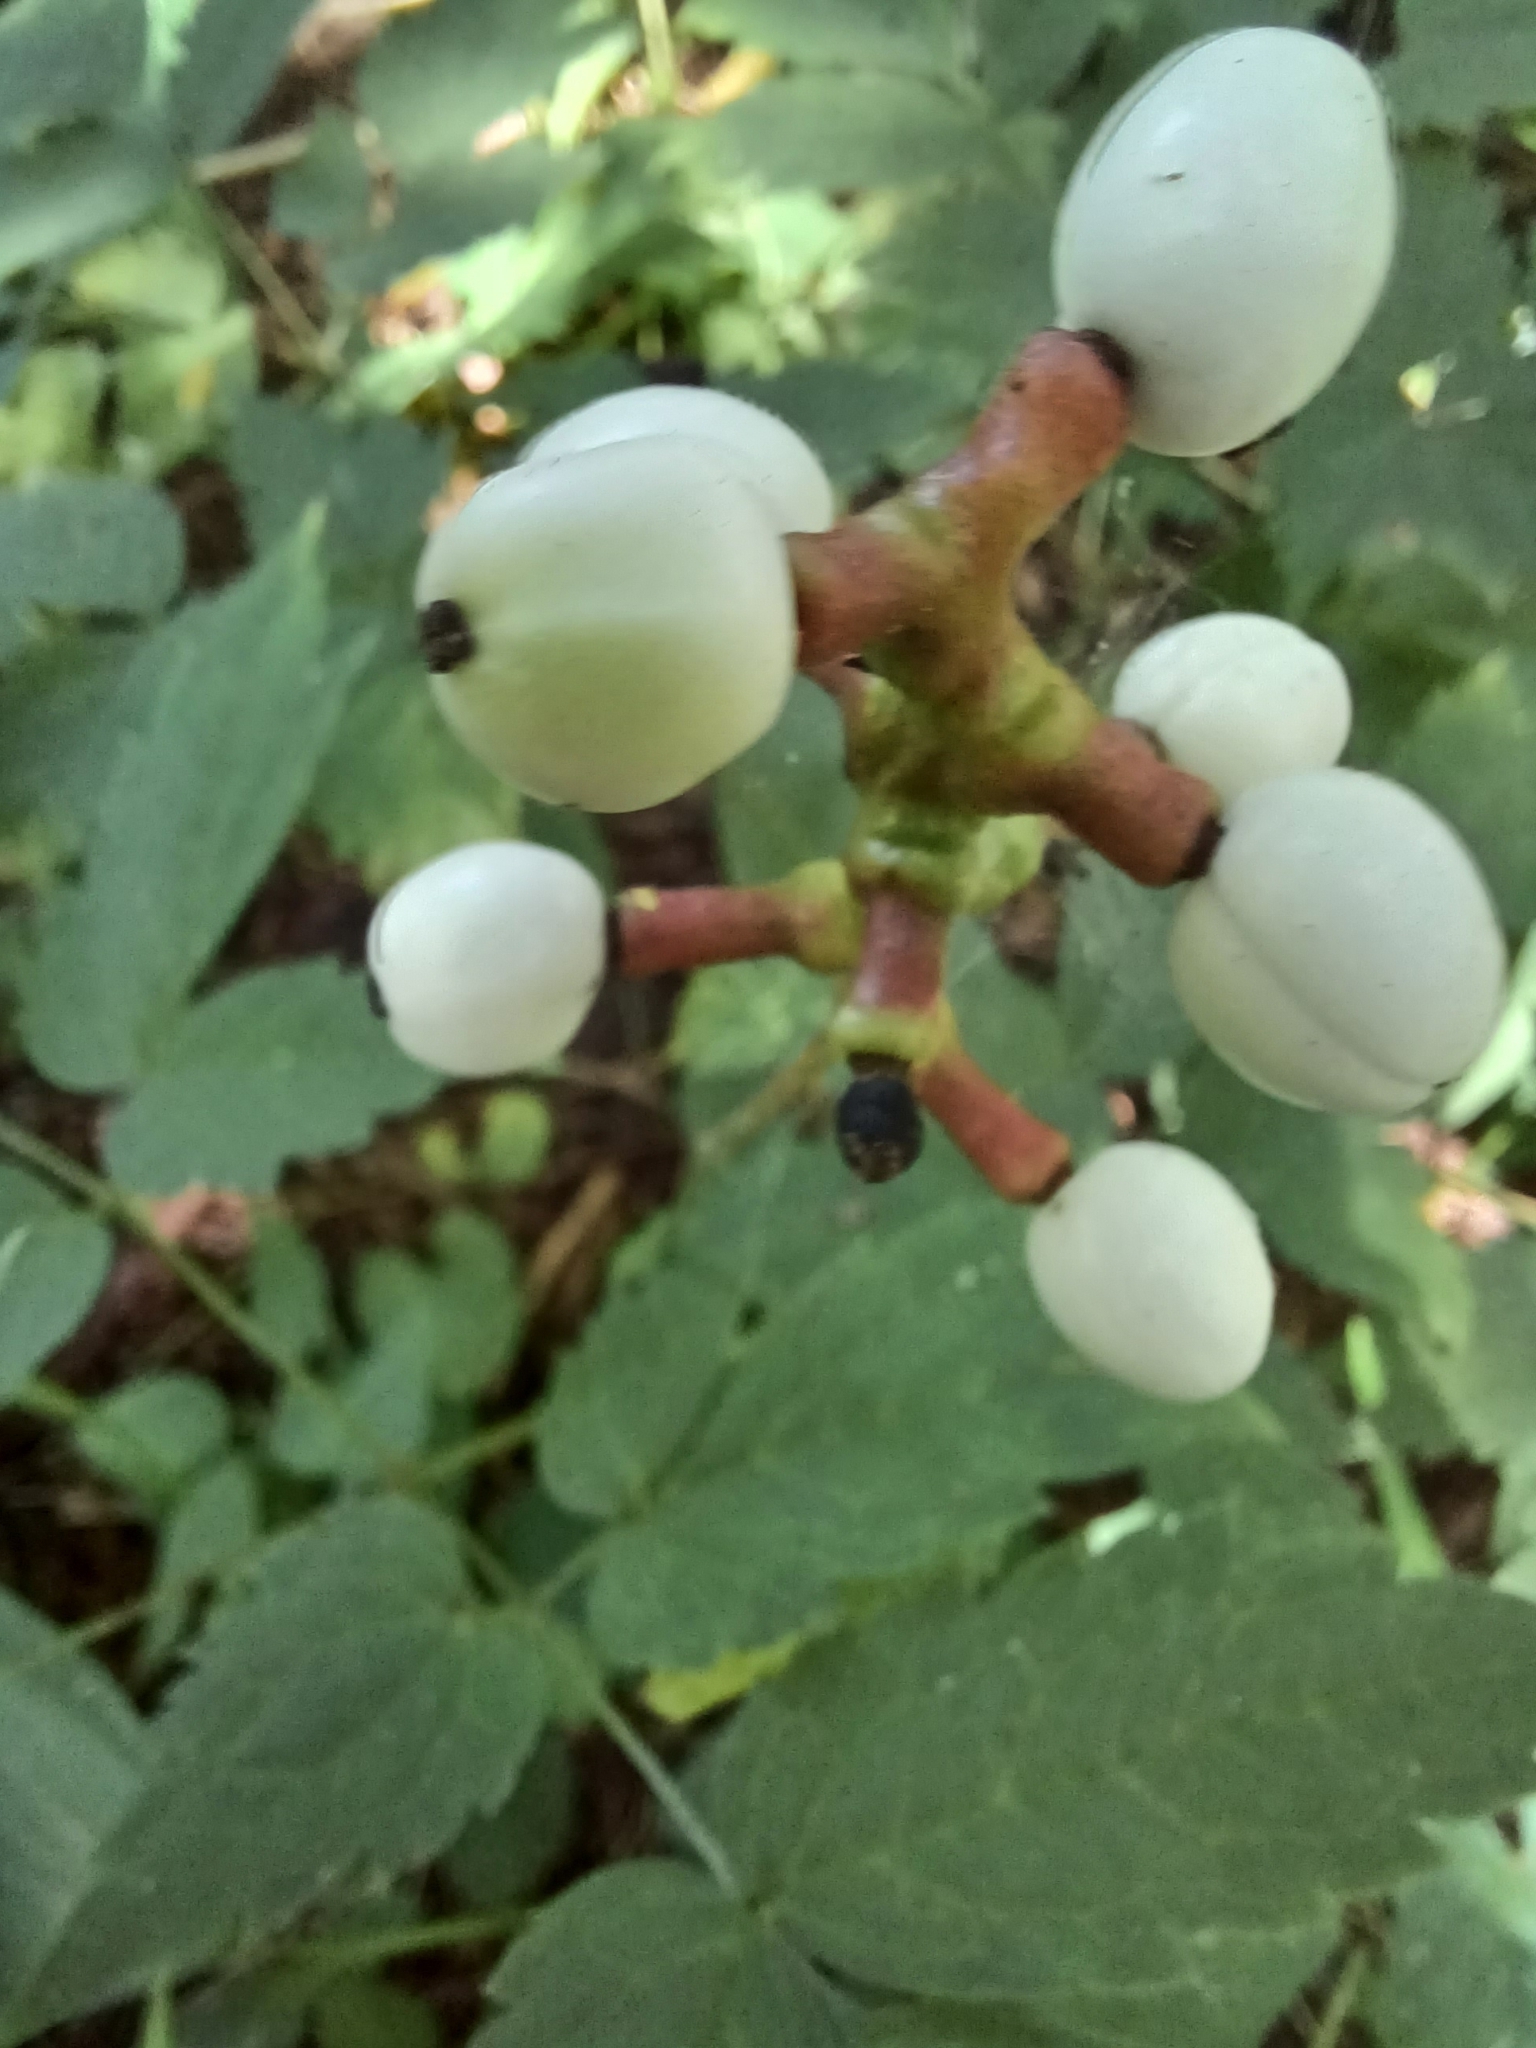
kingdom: Plantae
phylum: Tracheophyta
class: Magnoliopsida
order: Ranunculales
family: Ranunculaceae
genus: Actaea
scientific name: Actaea pachypoda
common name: Doll's-eyes
